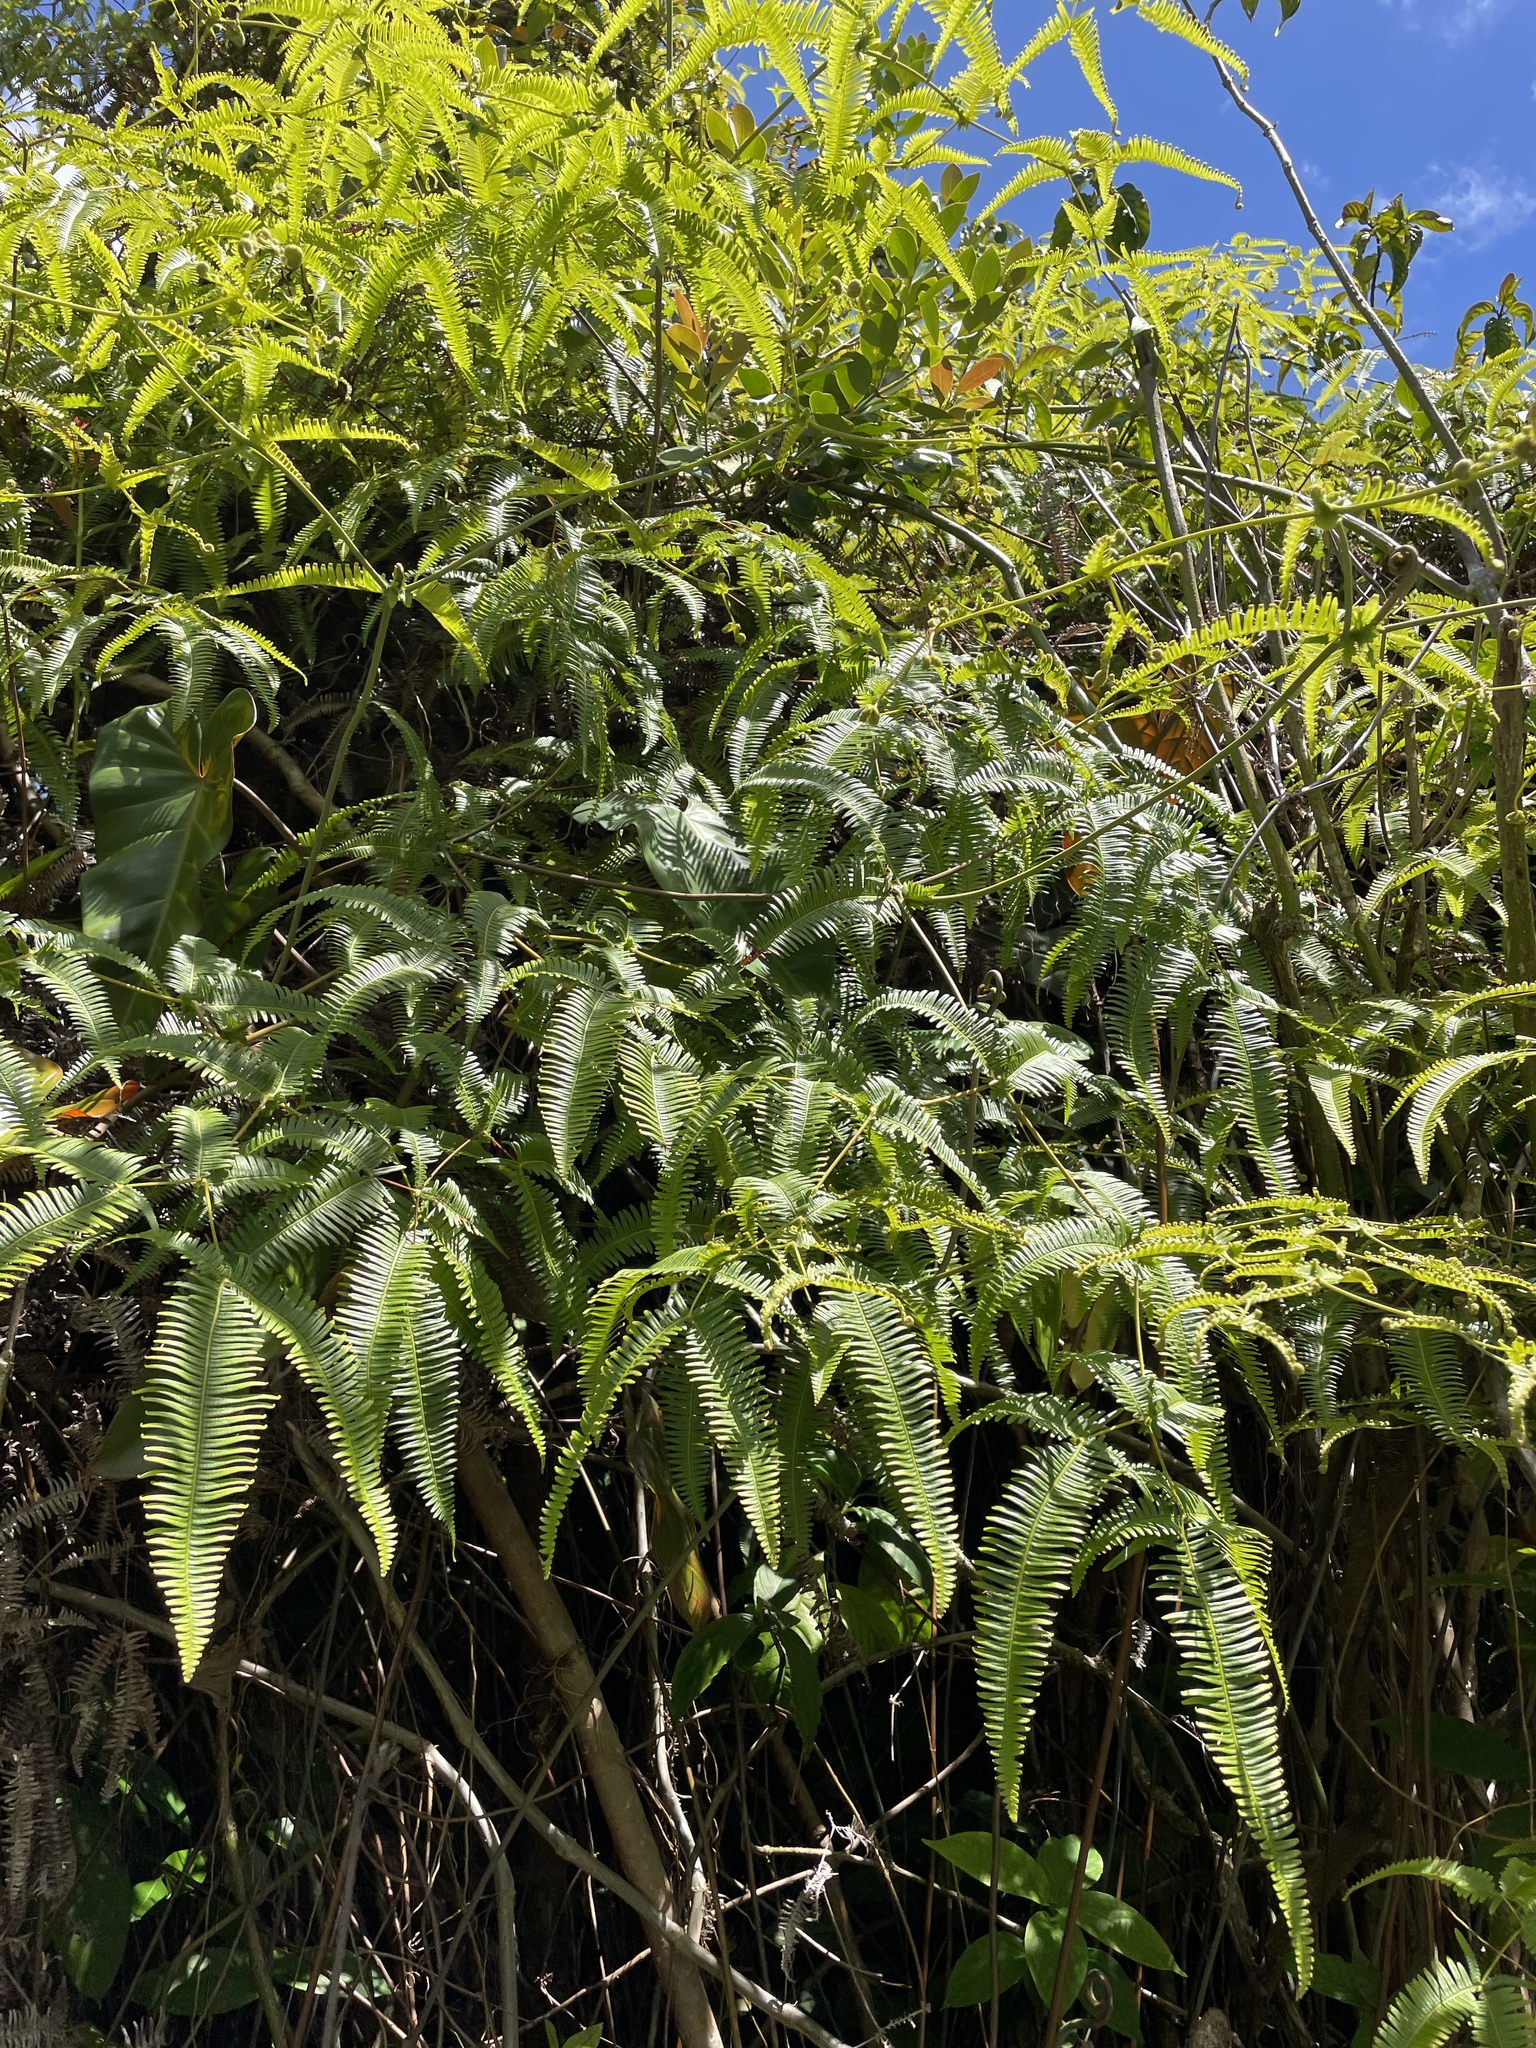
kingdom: Plantae
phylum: Tracheophyta
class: Polypodiopsida
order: Gleicheniales
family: Gleicheniaceae
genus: Dicranopteris
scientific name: Dicranopteris linearis
